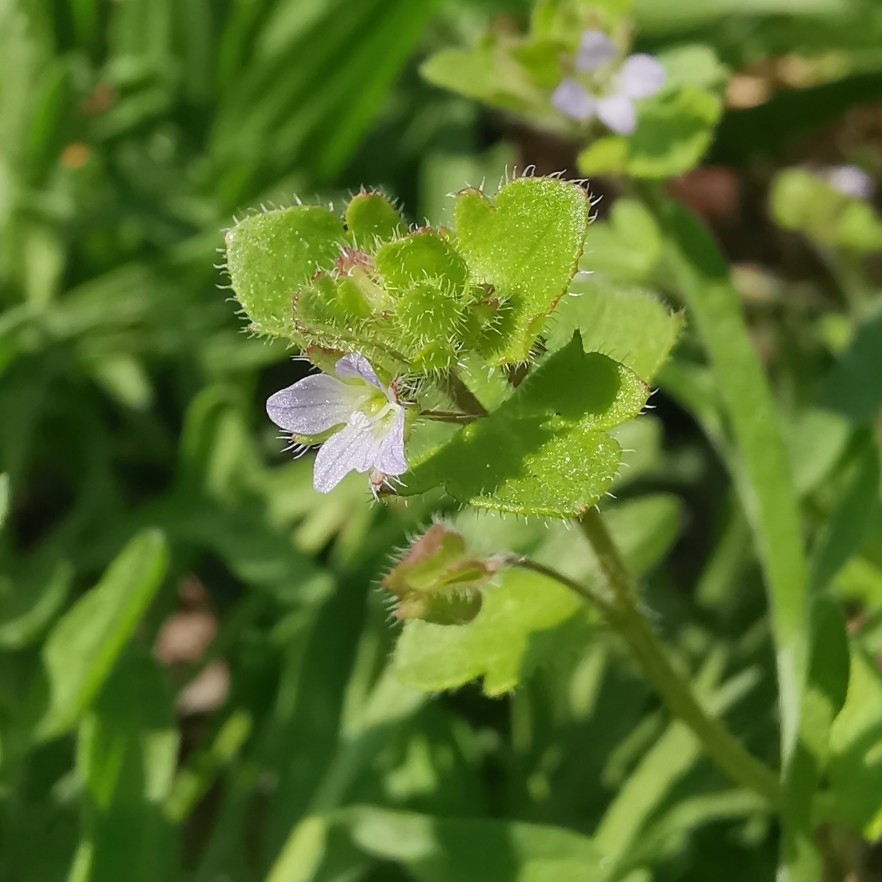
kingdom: Plantae
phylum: Tracheophyta
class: Magnoliopsida
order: Lamiales
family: Plantaginaceae
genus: Veronica
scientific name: Veronica sublobata
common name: False ivy-leaved speedwell
